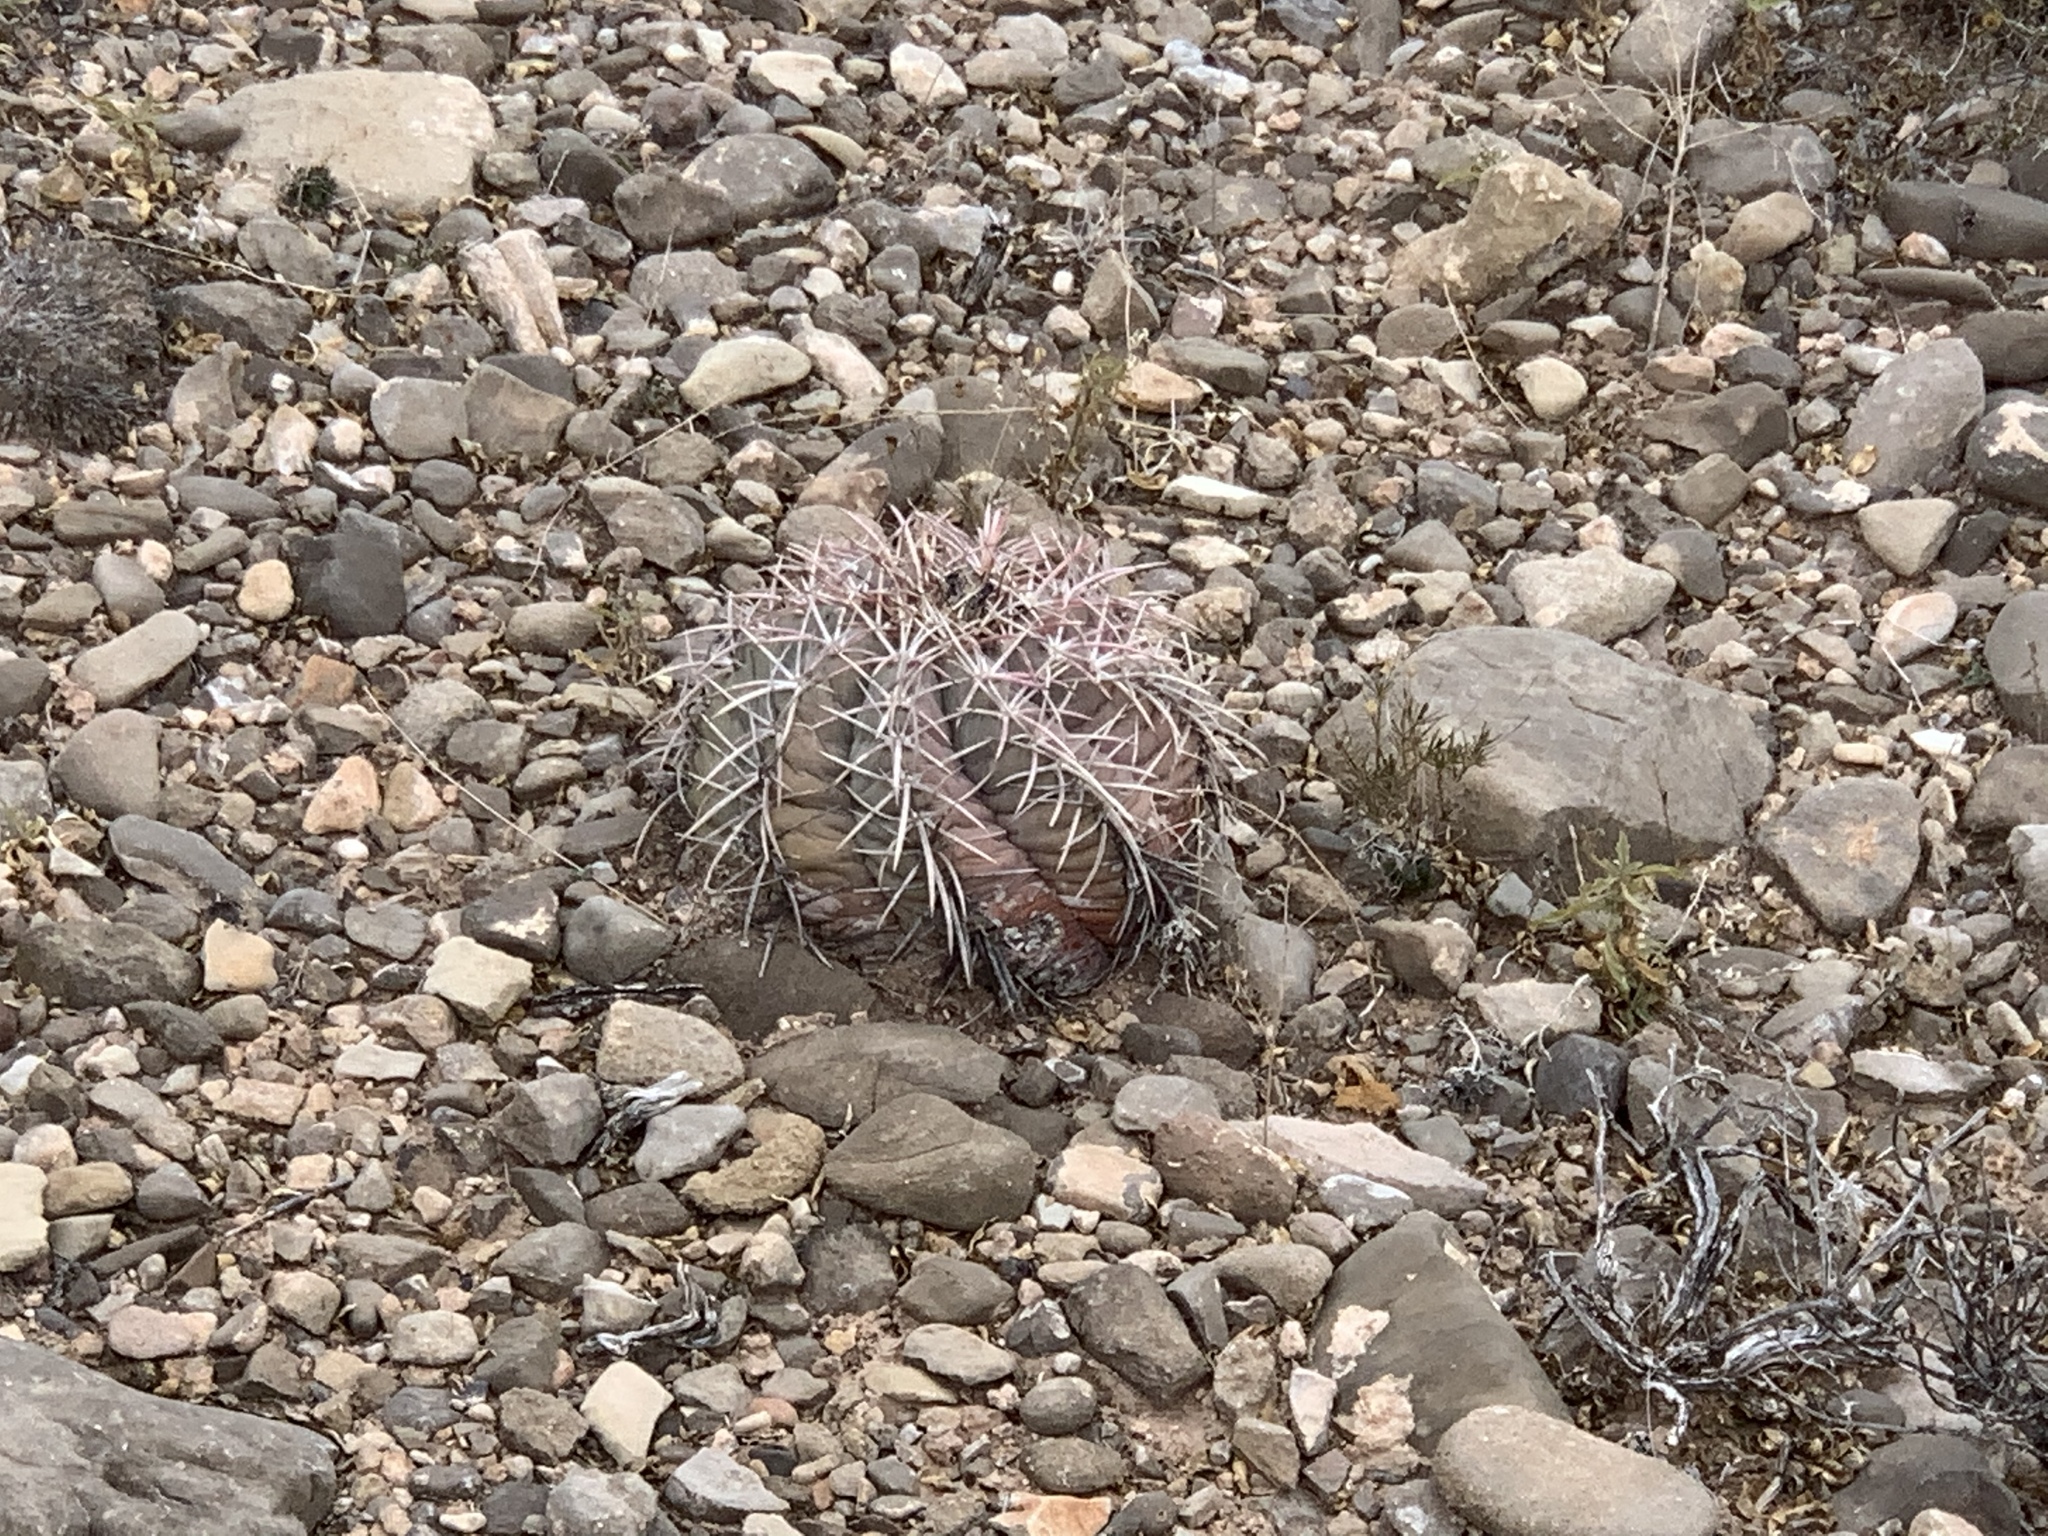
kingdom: Plantae
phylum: Tracheophyta
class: Magnoliopsida
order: Caryophyllales
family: Cactaceae
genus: Echinocactus
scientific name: Echinocactus horizonthalonius
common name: Devilshead
